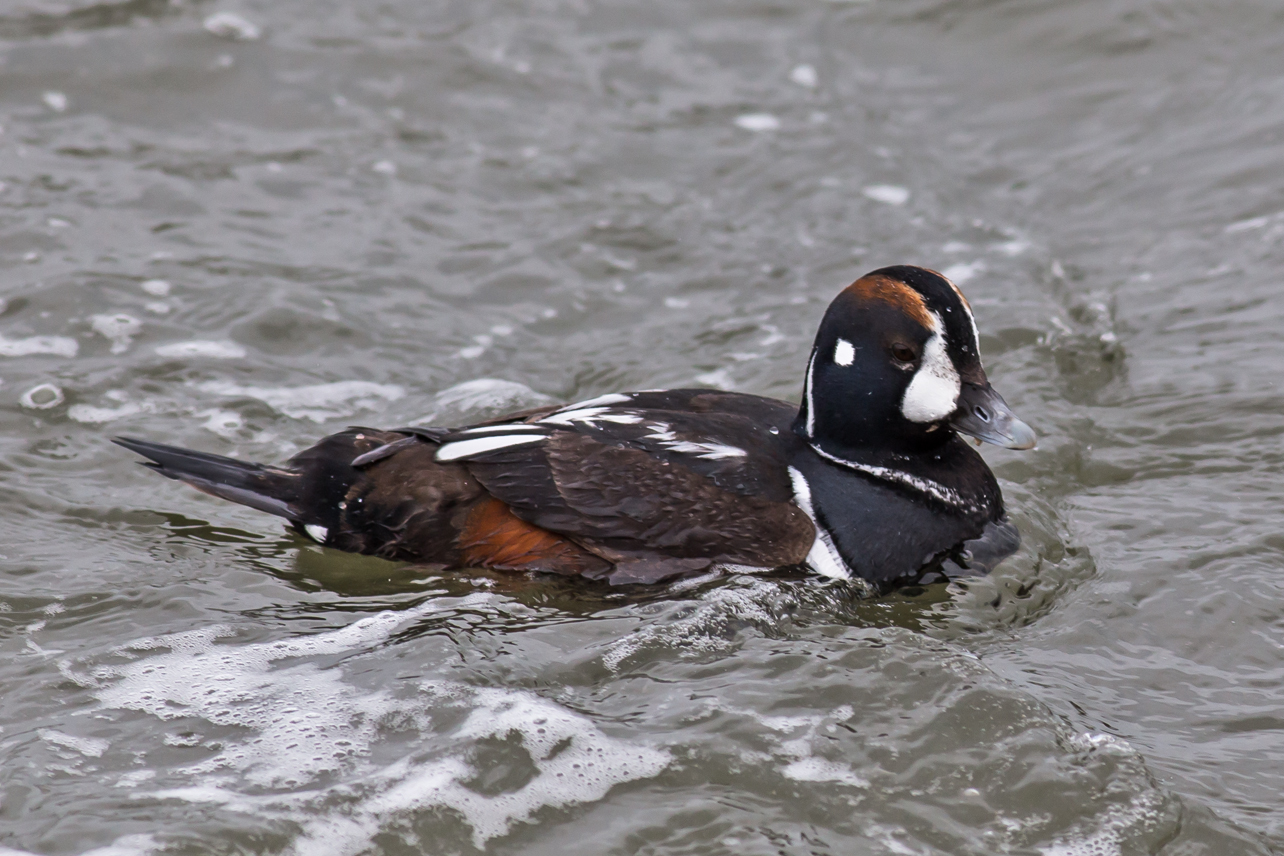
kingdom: Animalia
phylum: Chordata
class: Aves
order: Anseriformes
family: Anatidae
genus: Histrionicus
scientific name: Histrionicus histrionicus
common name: Harlequin duck
